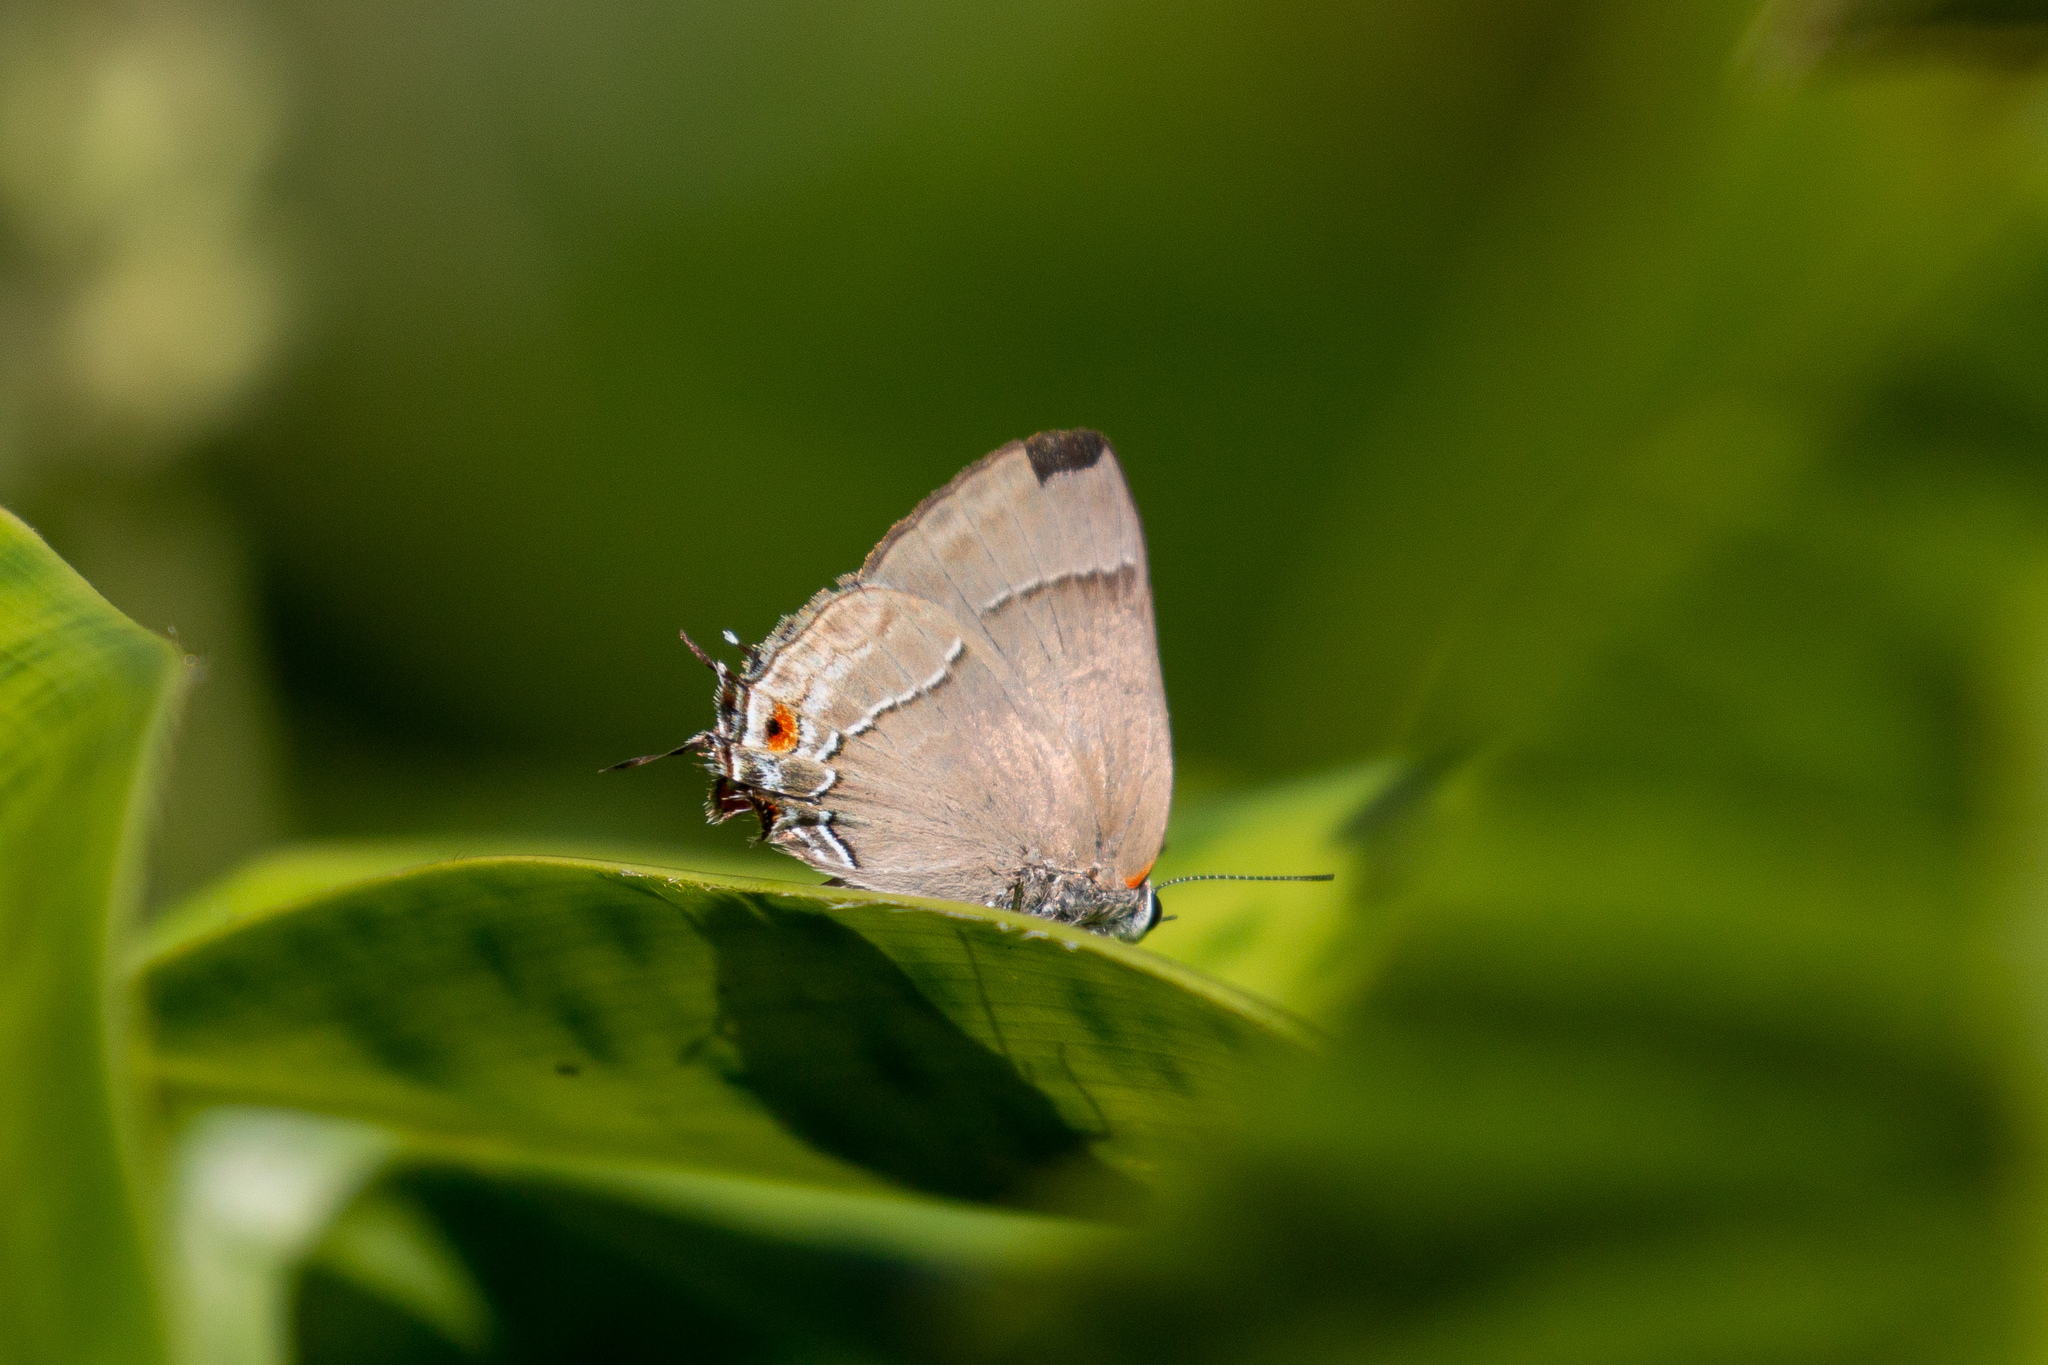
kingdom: Animalia
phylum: Arthropoda
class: Insecta
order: Lepidoptera
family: Lycaenidae
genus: Thecla
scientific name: Thecla spurina
